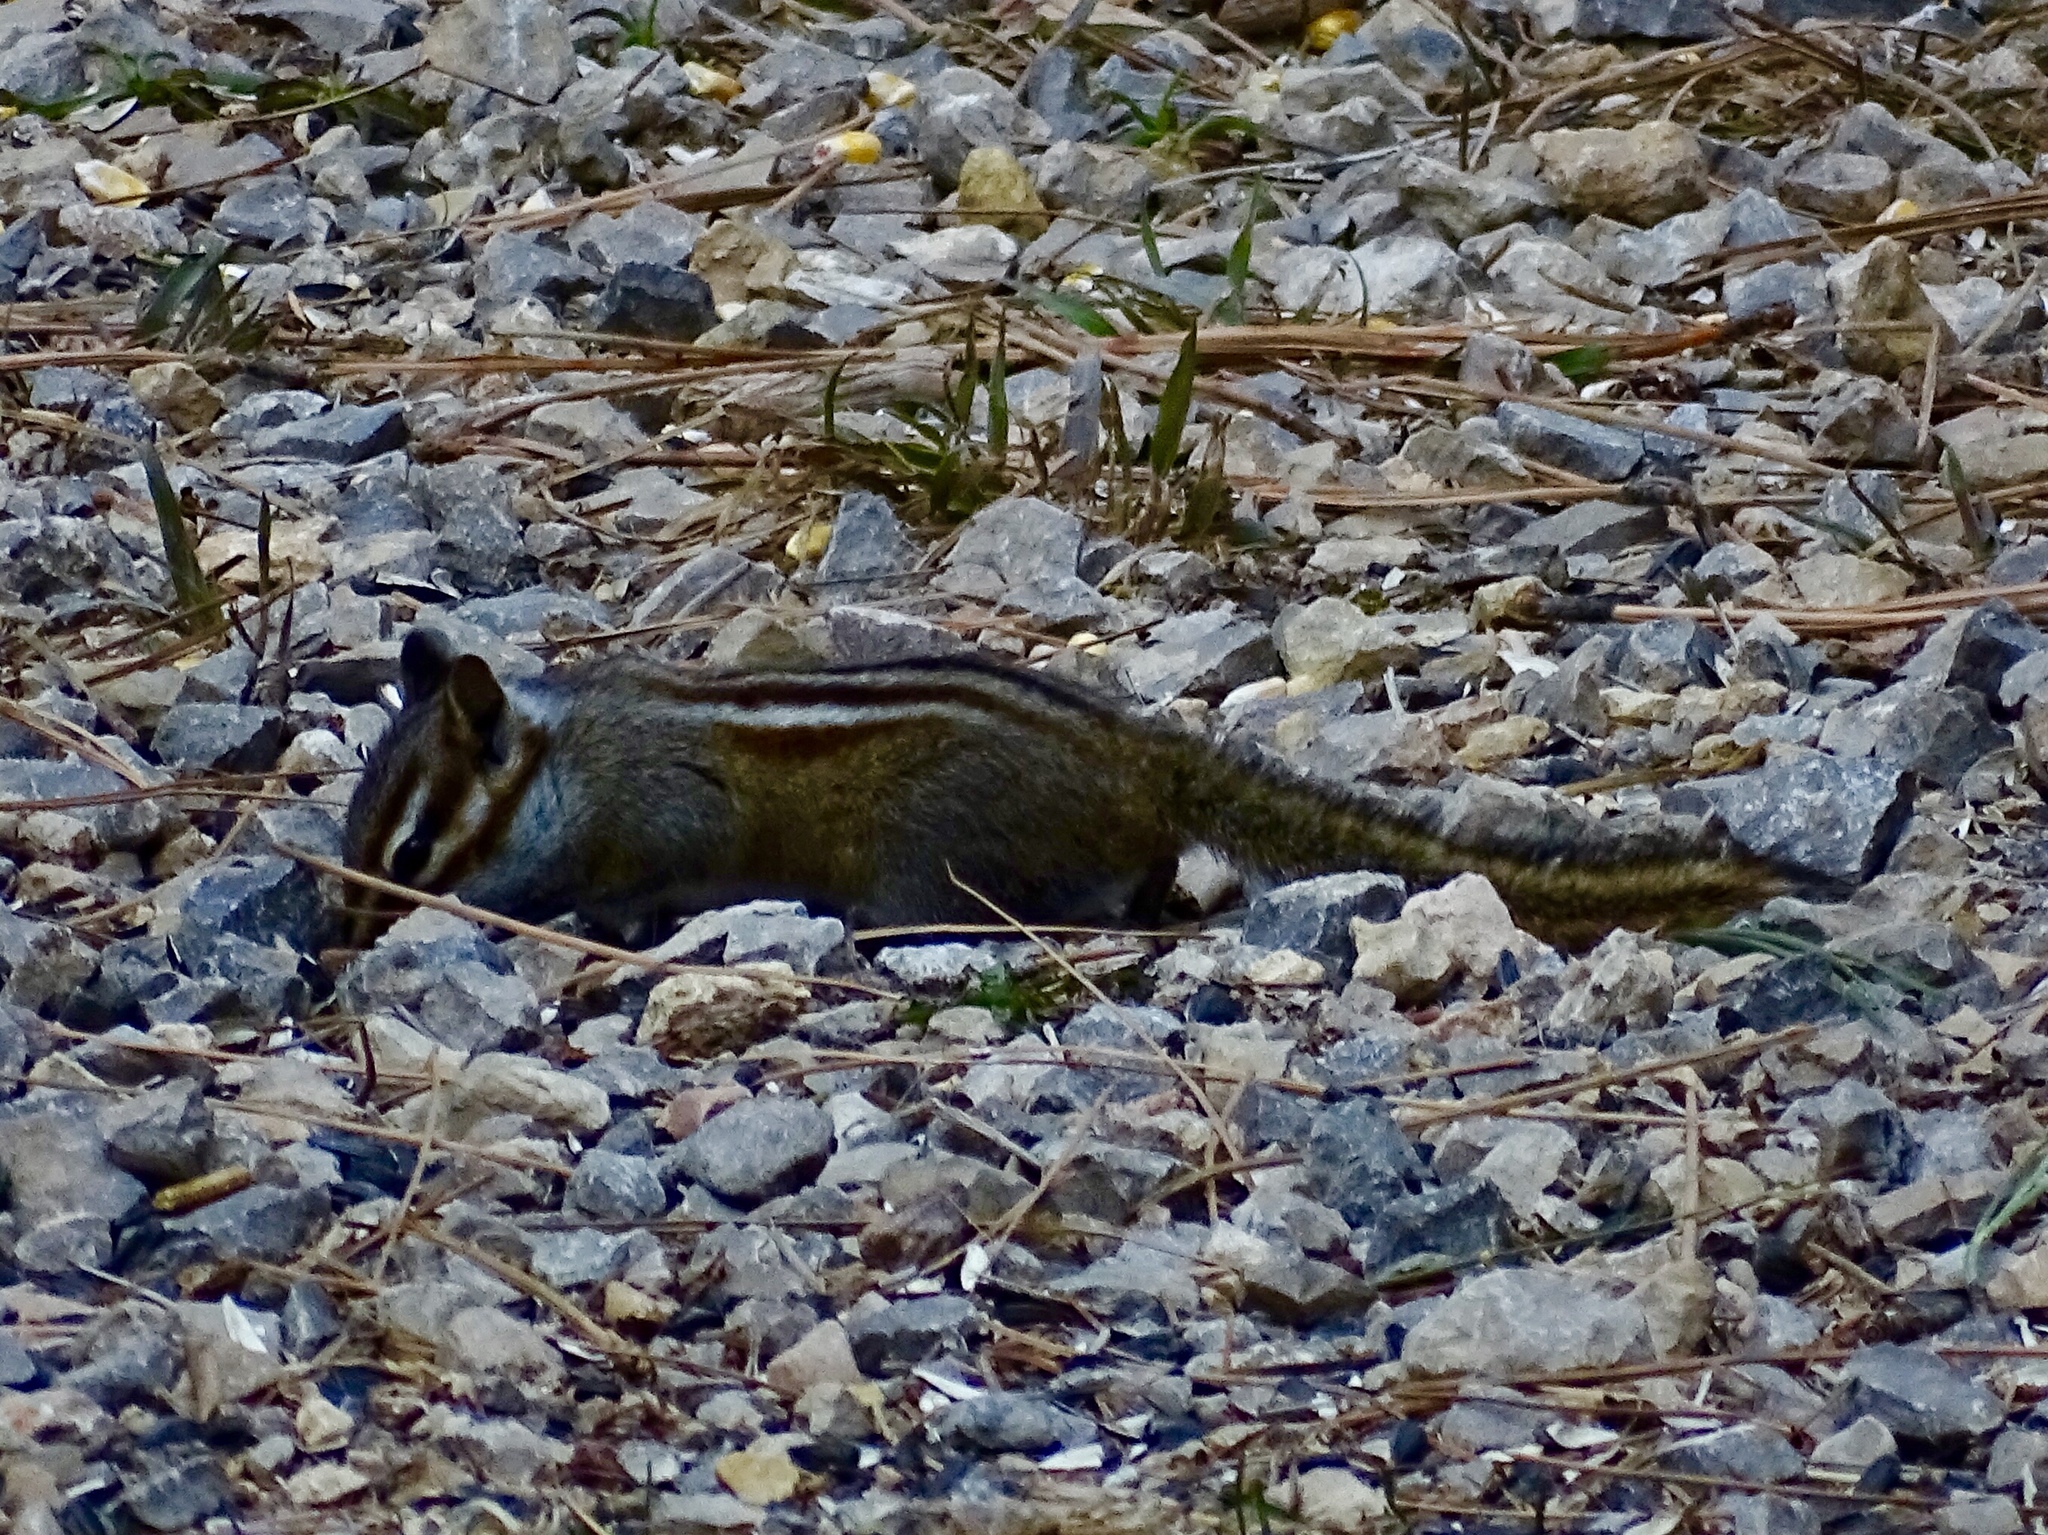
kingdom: Animalia
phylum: Chordata
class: Mammalia
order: Rodentia
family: Sciuridae
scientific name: Sciuridae
